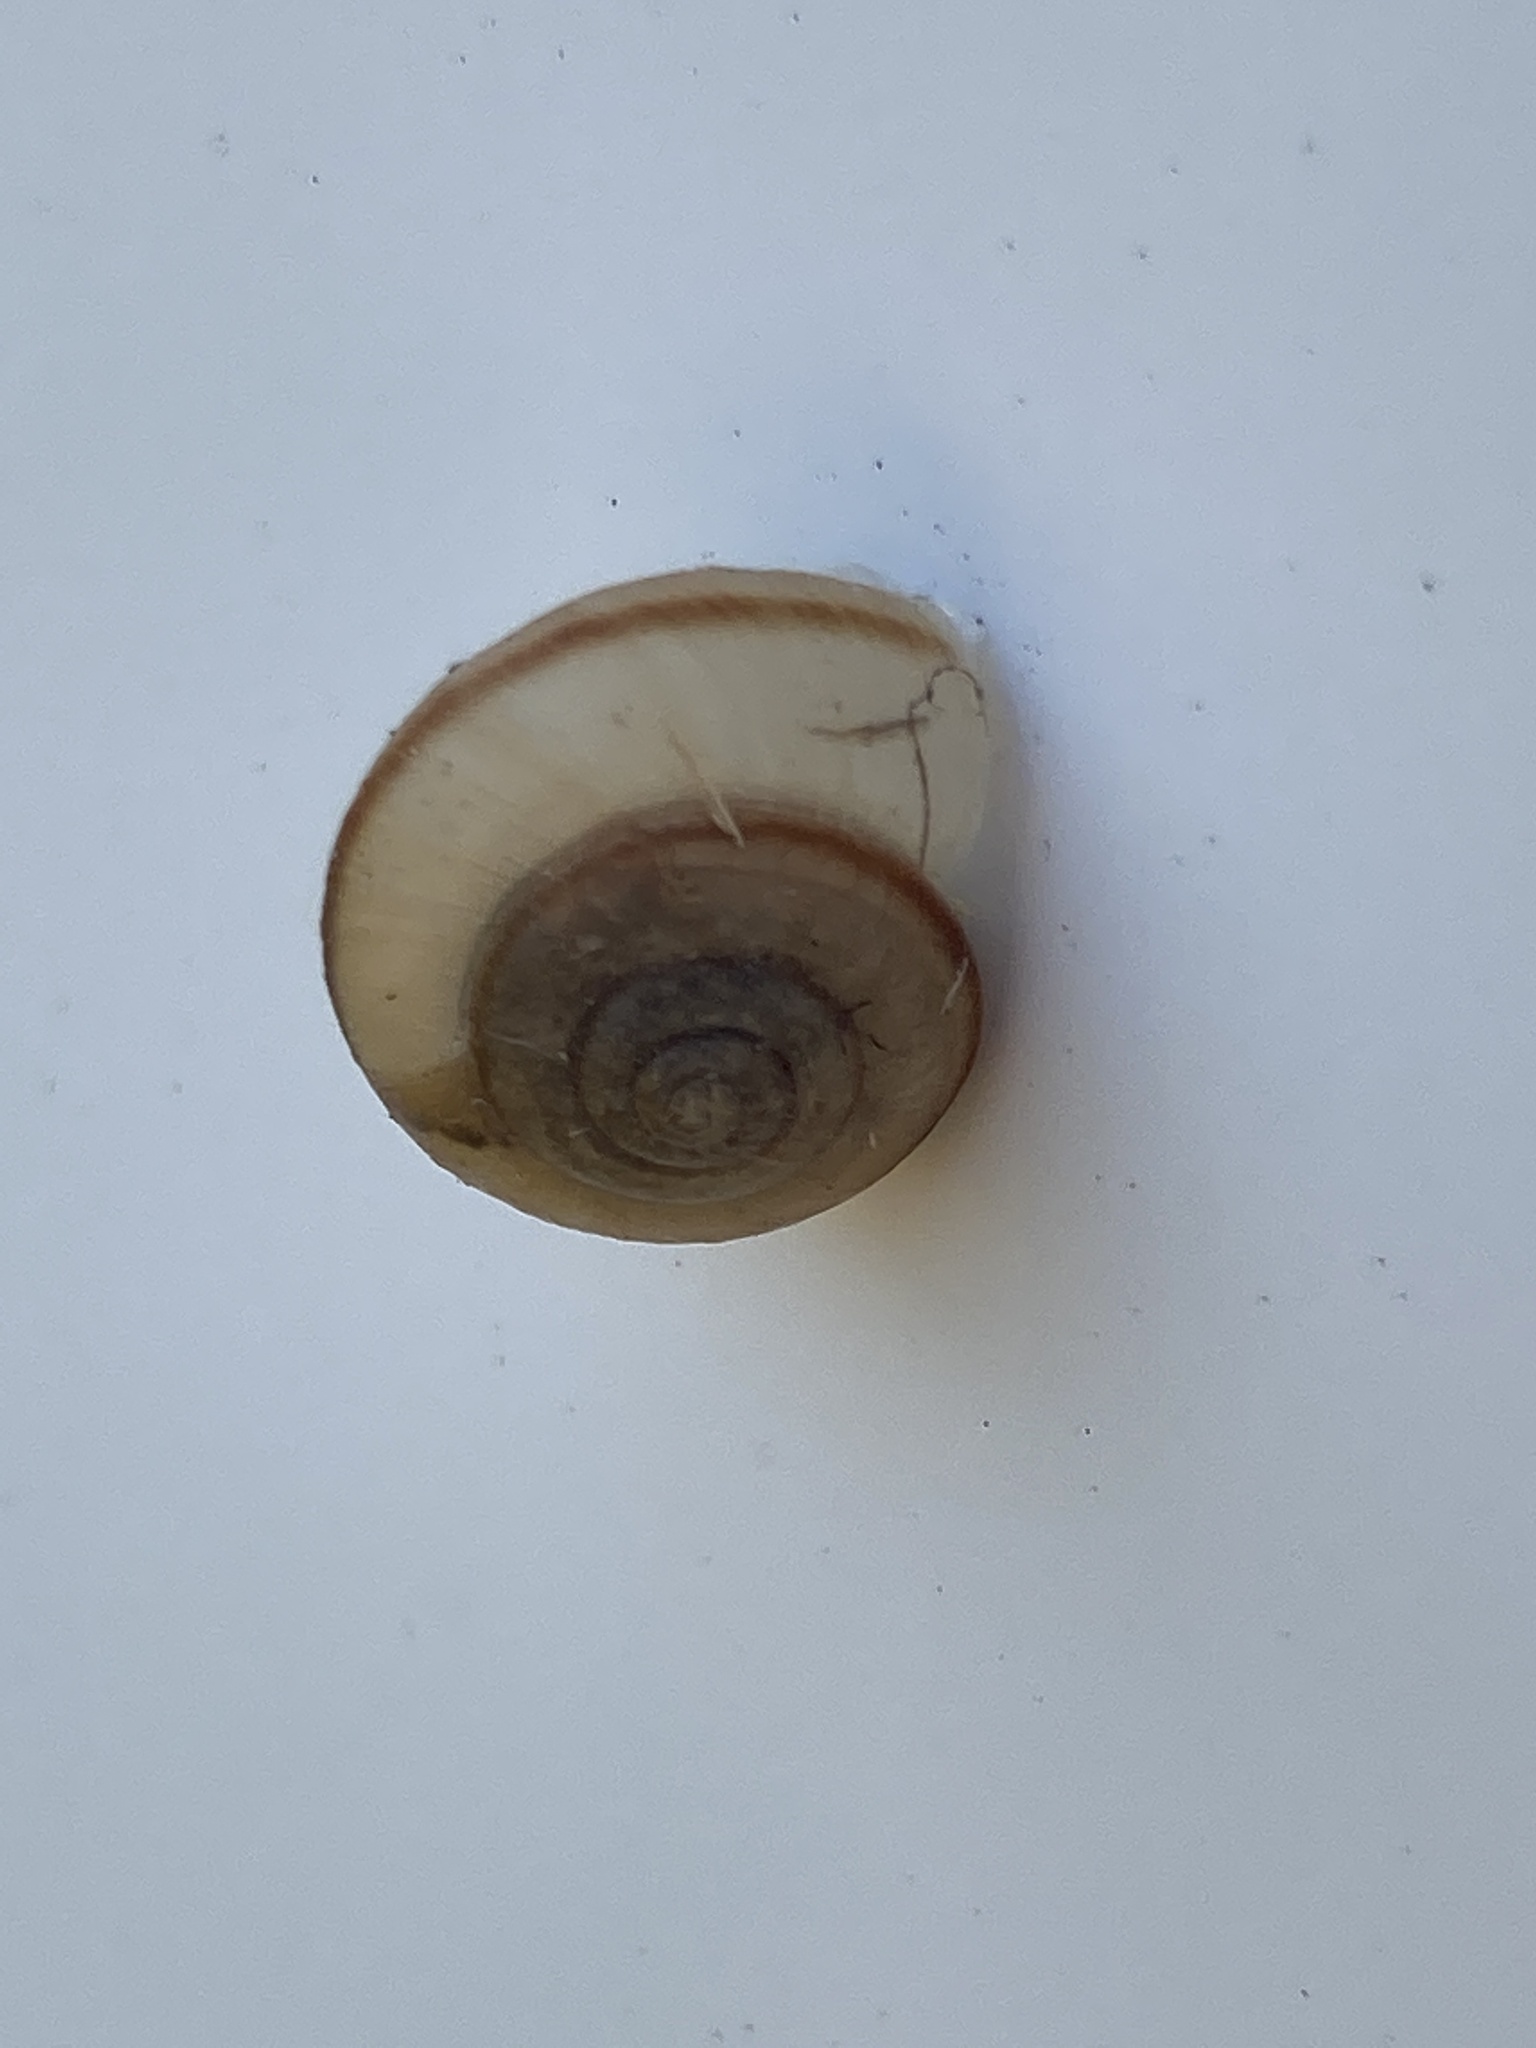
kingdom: Animalia
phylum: Mollusca
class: Gastropoda
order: Stylommatophora
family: Camaenidae
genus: Bradybaena
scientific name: Bradybaena similaris
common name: Asian trampsnail
